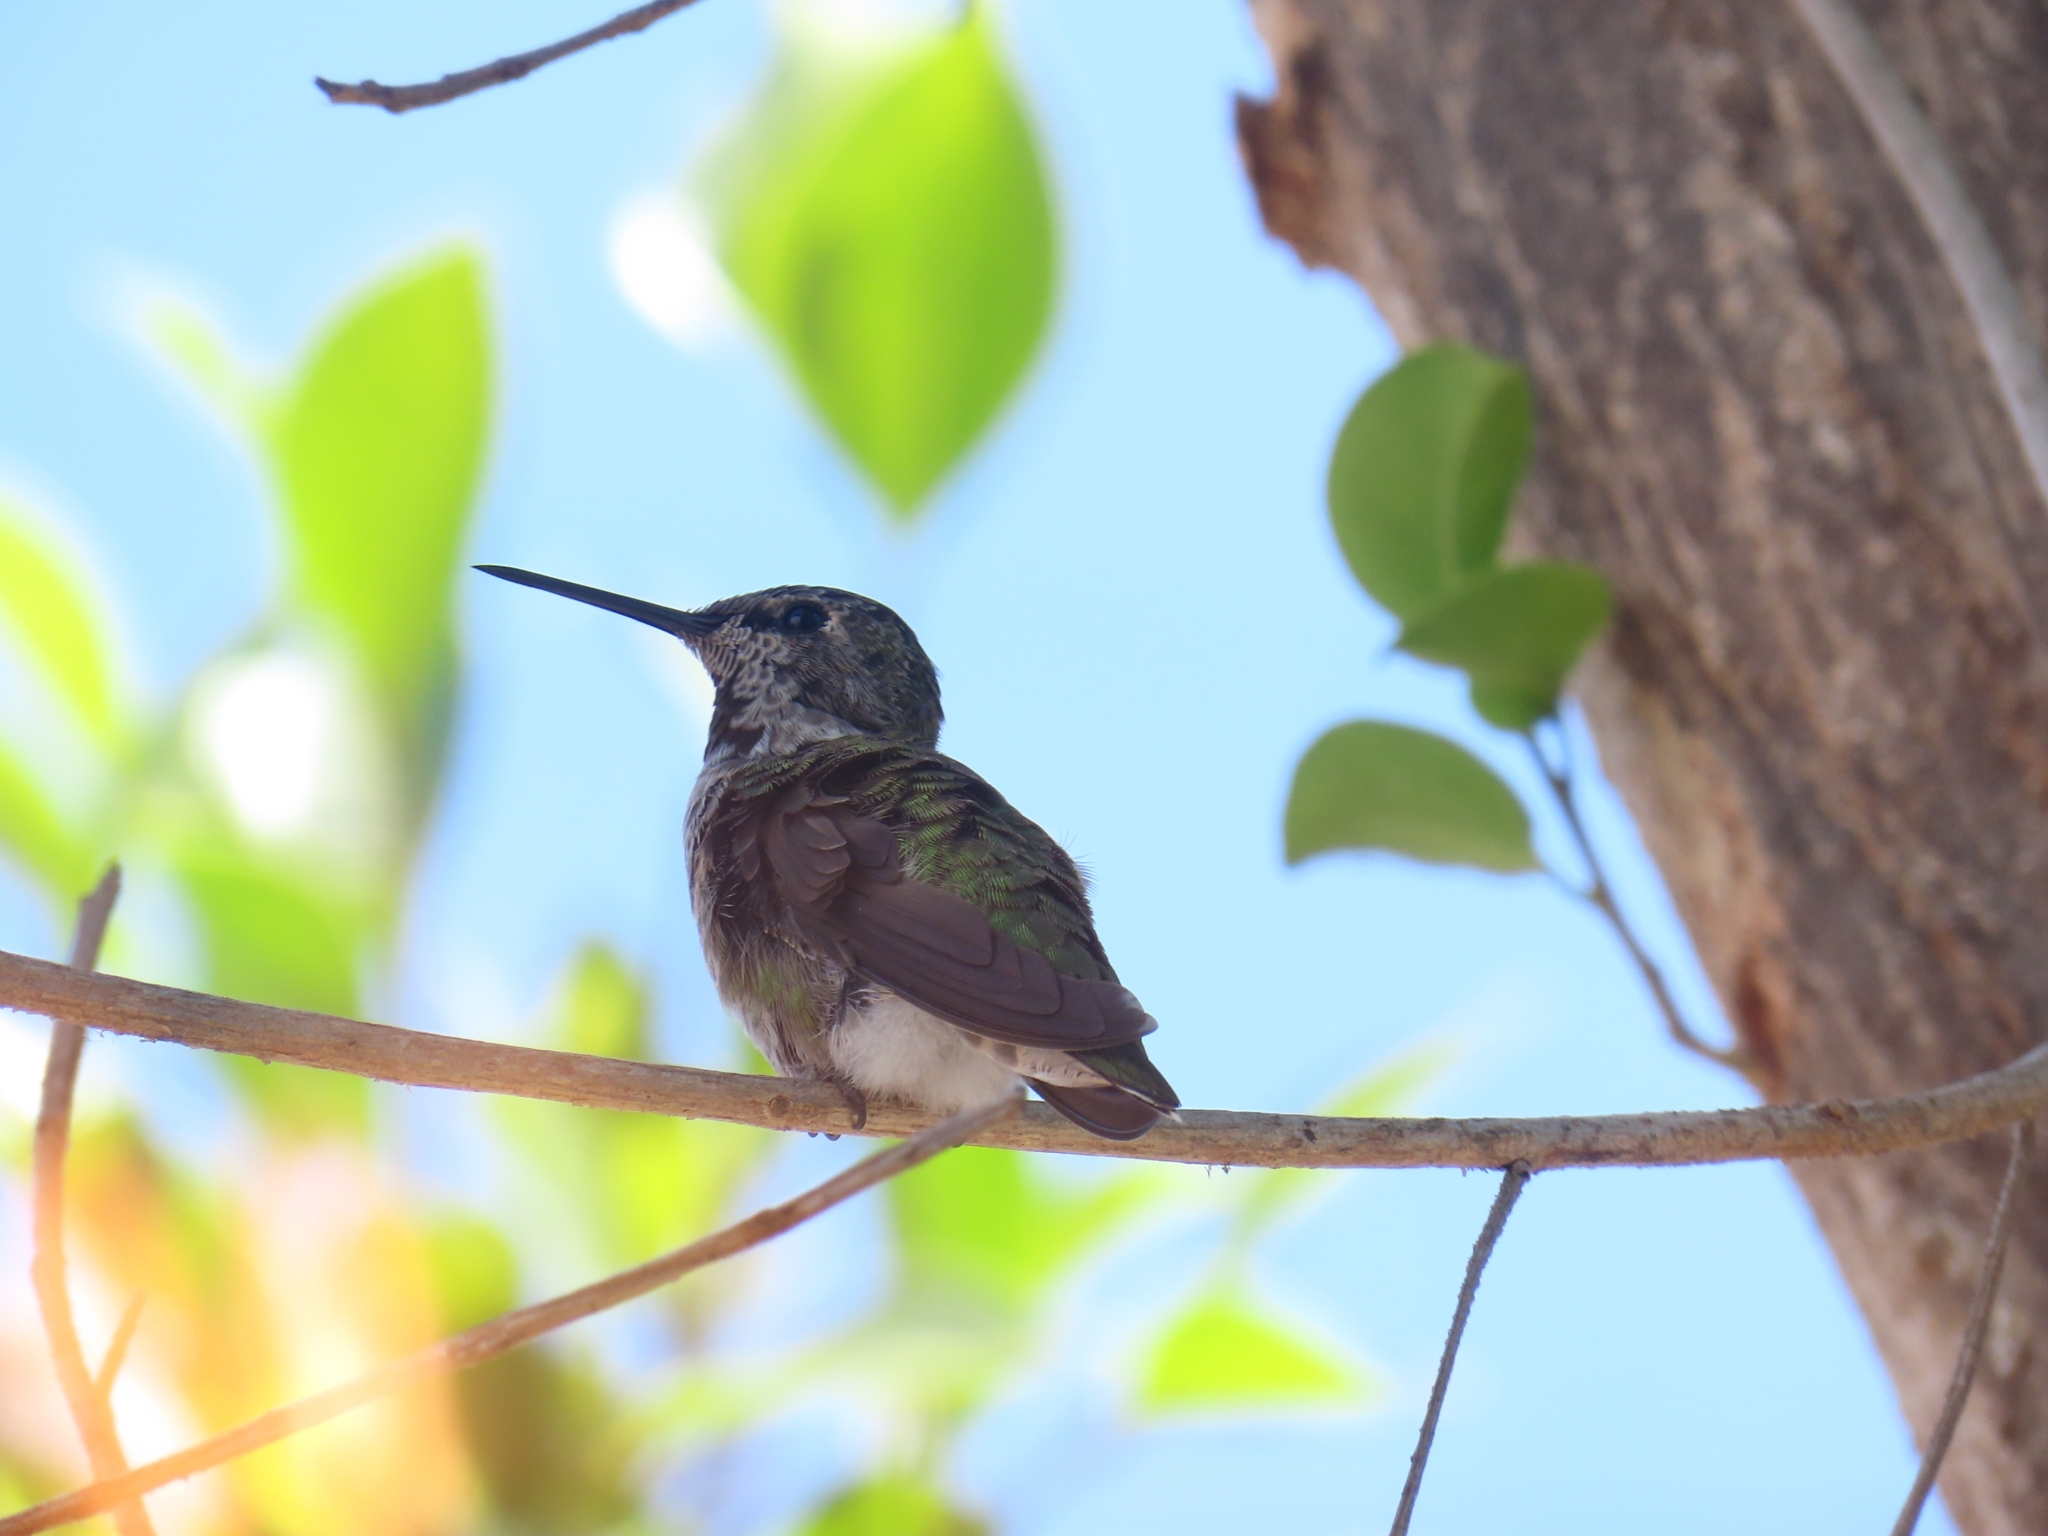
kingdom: Animalia
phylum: Chordata
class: Aves
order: Apodiformes
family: Trochilidae
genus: Calypte
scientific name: Calypte anna
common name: Anna's hummingbird
